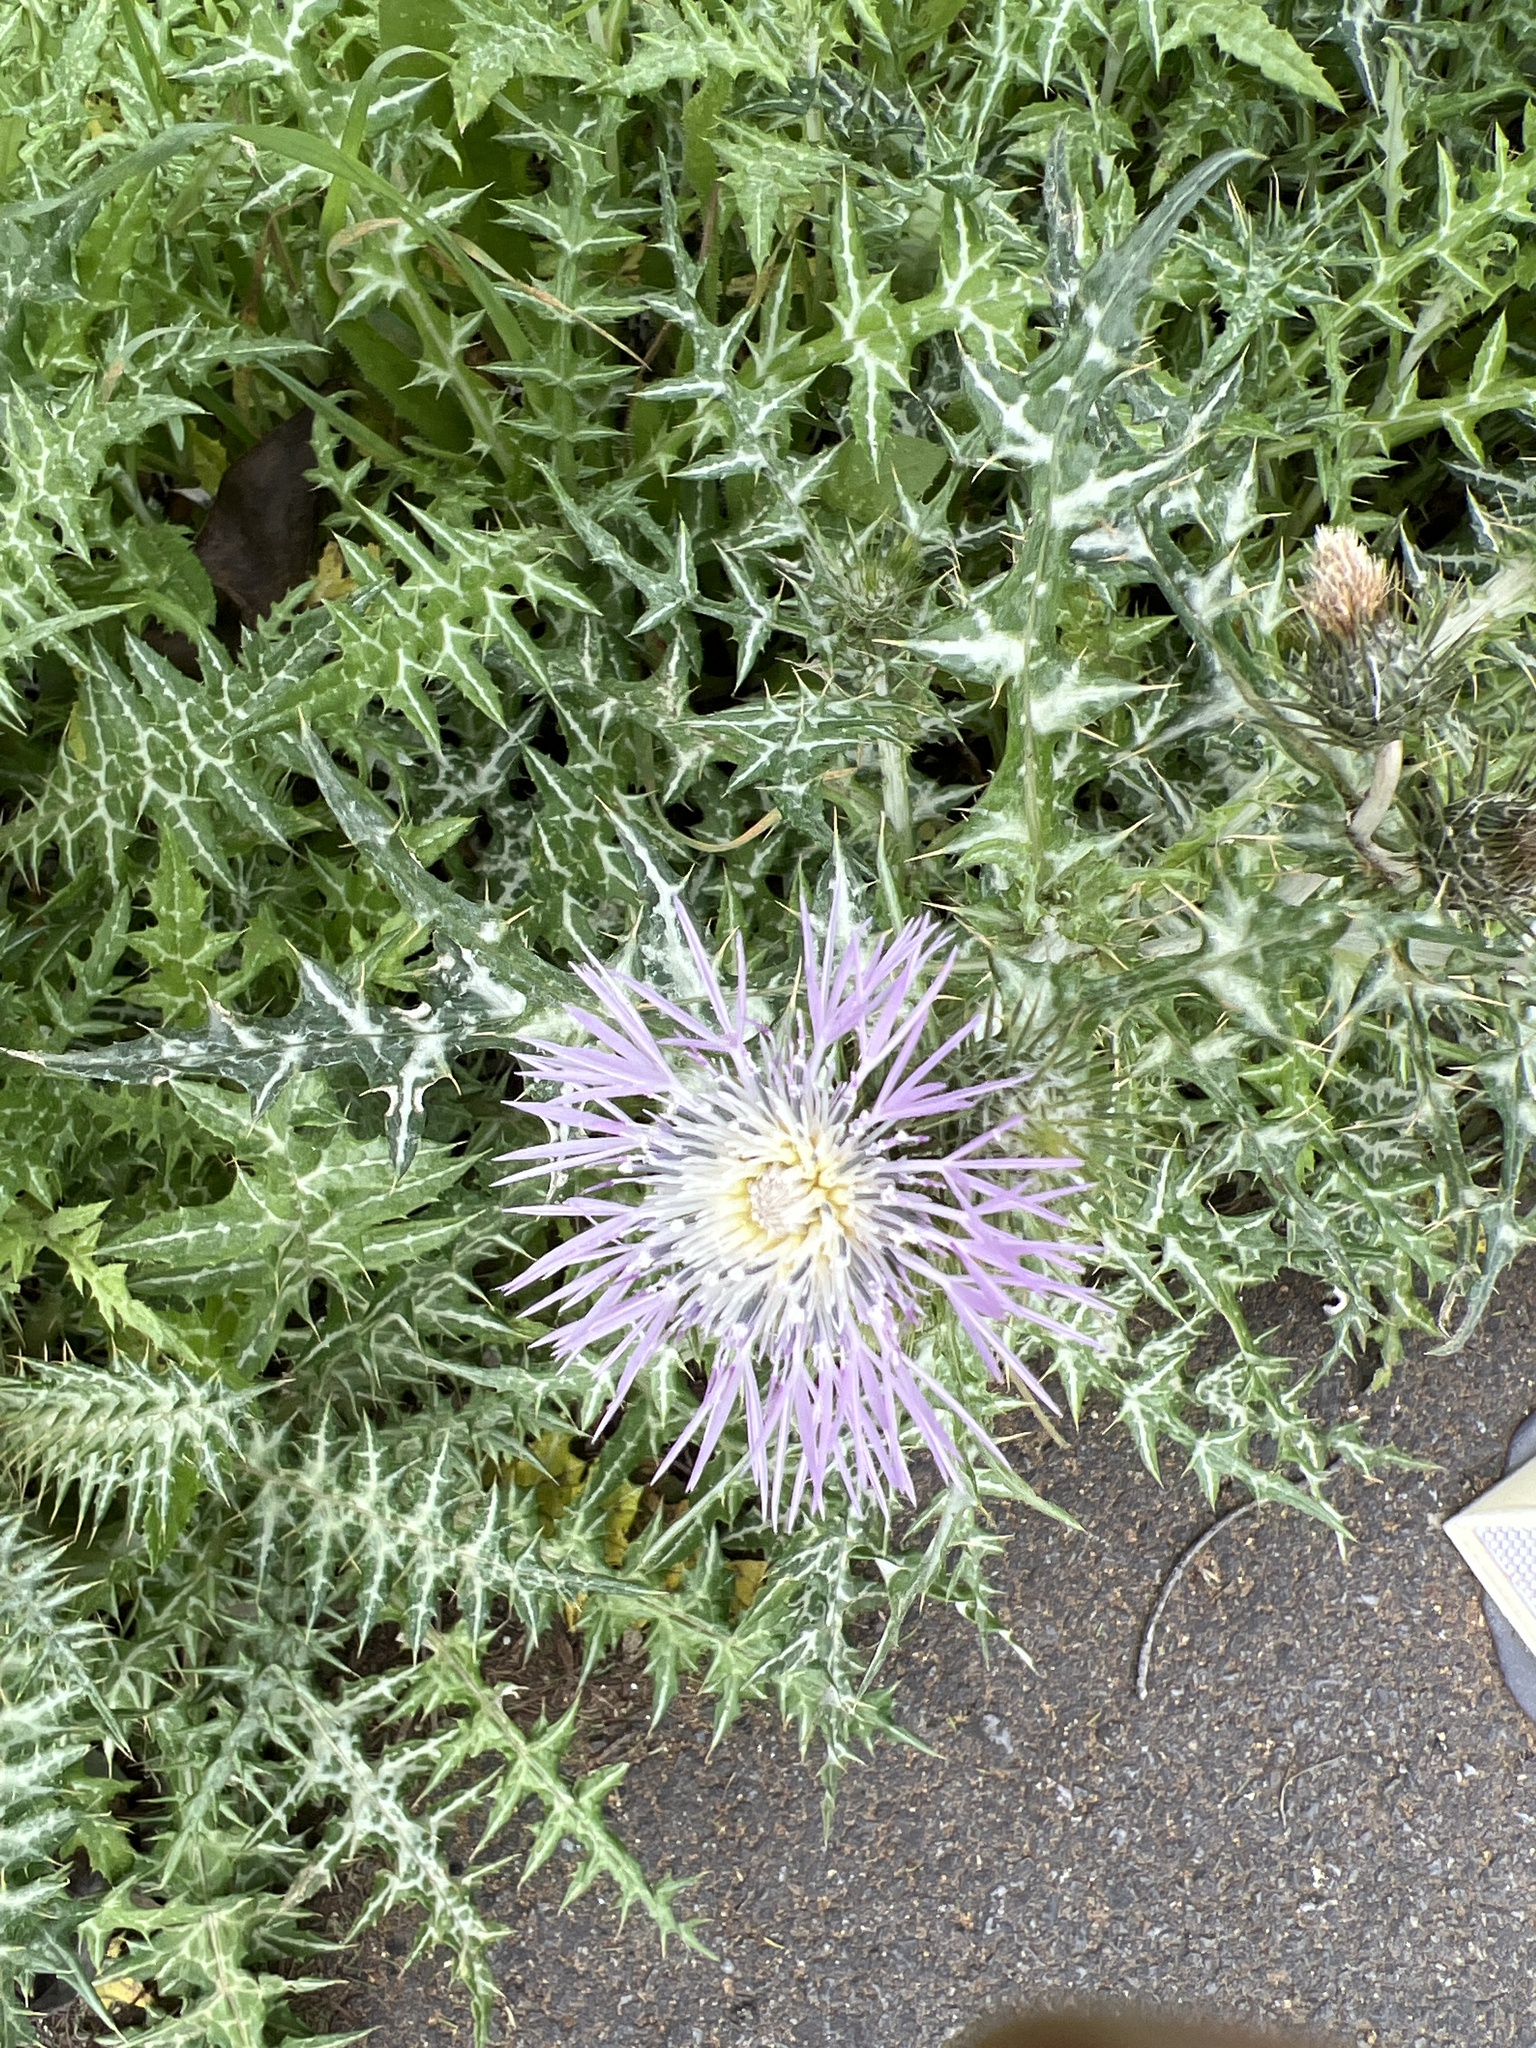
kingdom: Plantae
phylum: Tracheophyta
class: Magnoliopsida
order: Asterales
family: Asteraceae
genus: Galactites
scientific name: Galactites tomentosa
